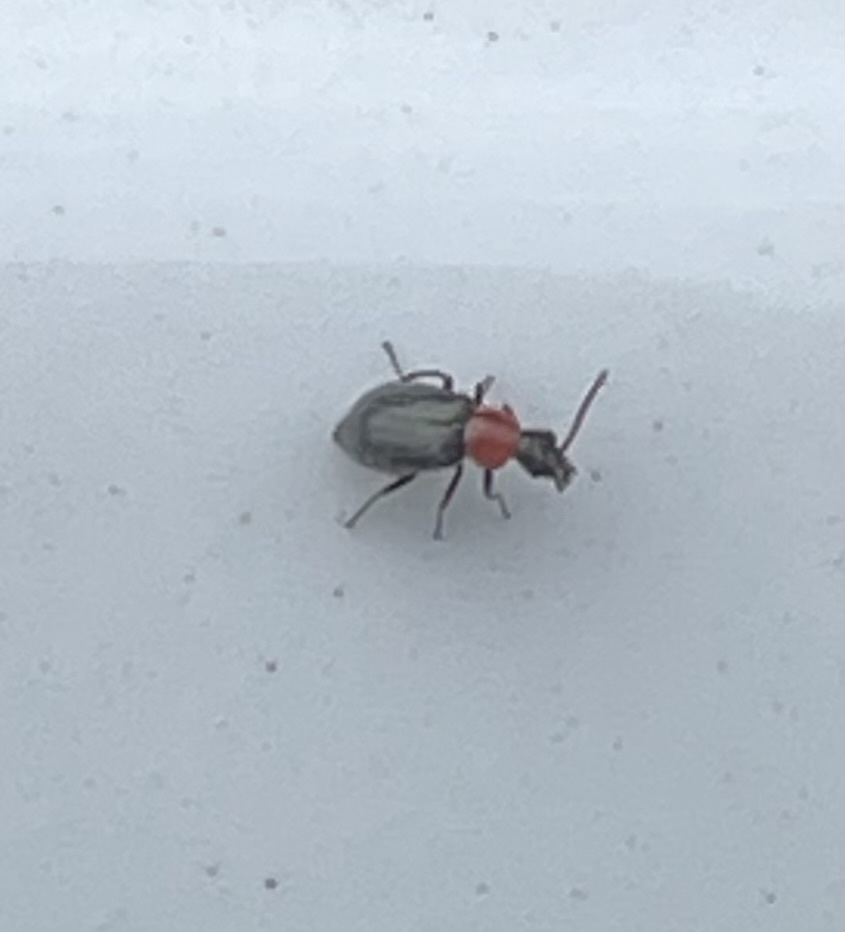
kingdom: Animalia
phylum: Arthropoda
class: Insecta
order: Coleoptera
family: Malachiidae
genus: Attalus
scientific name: Attalus
